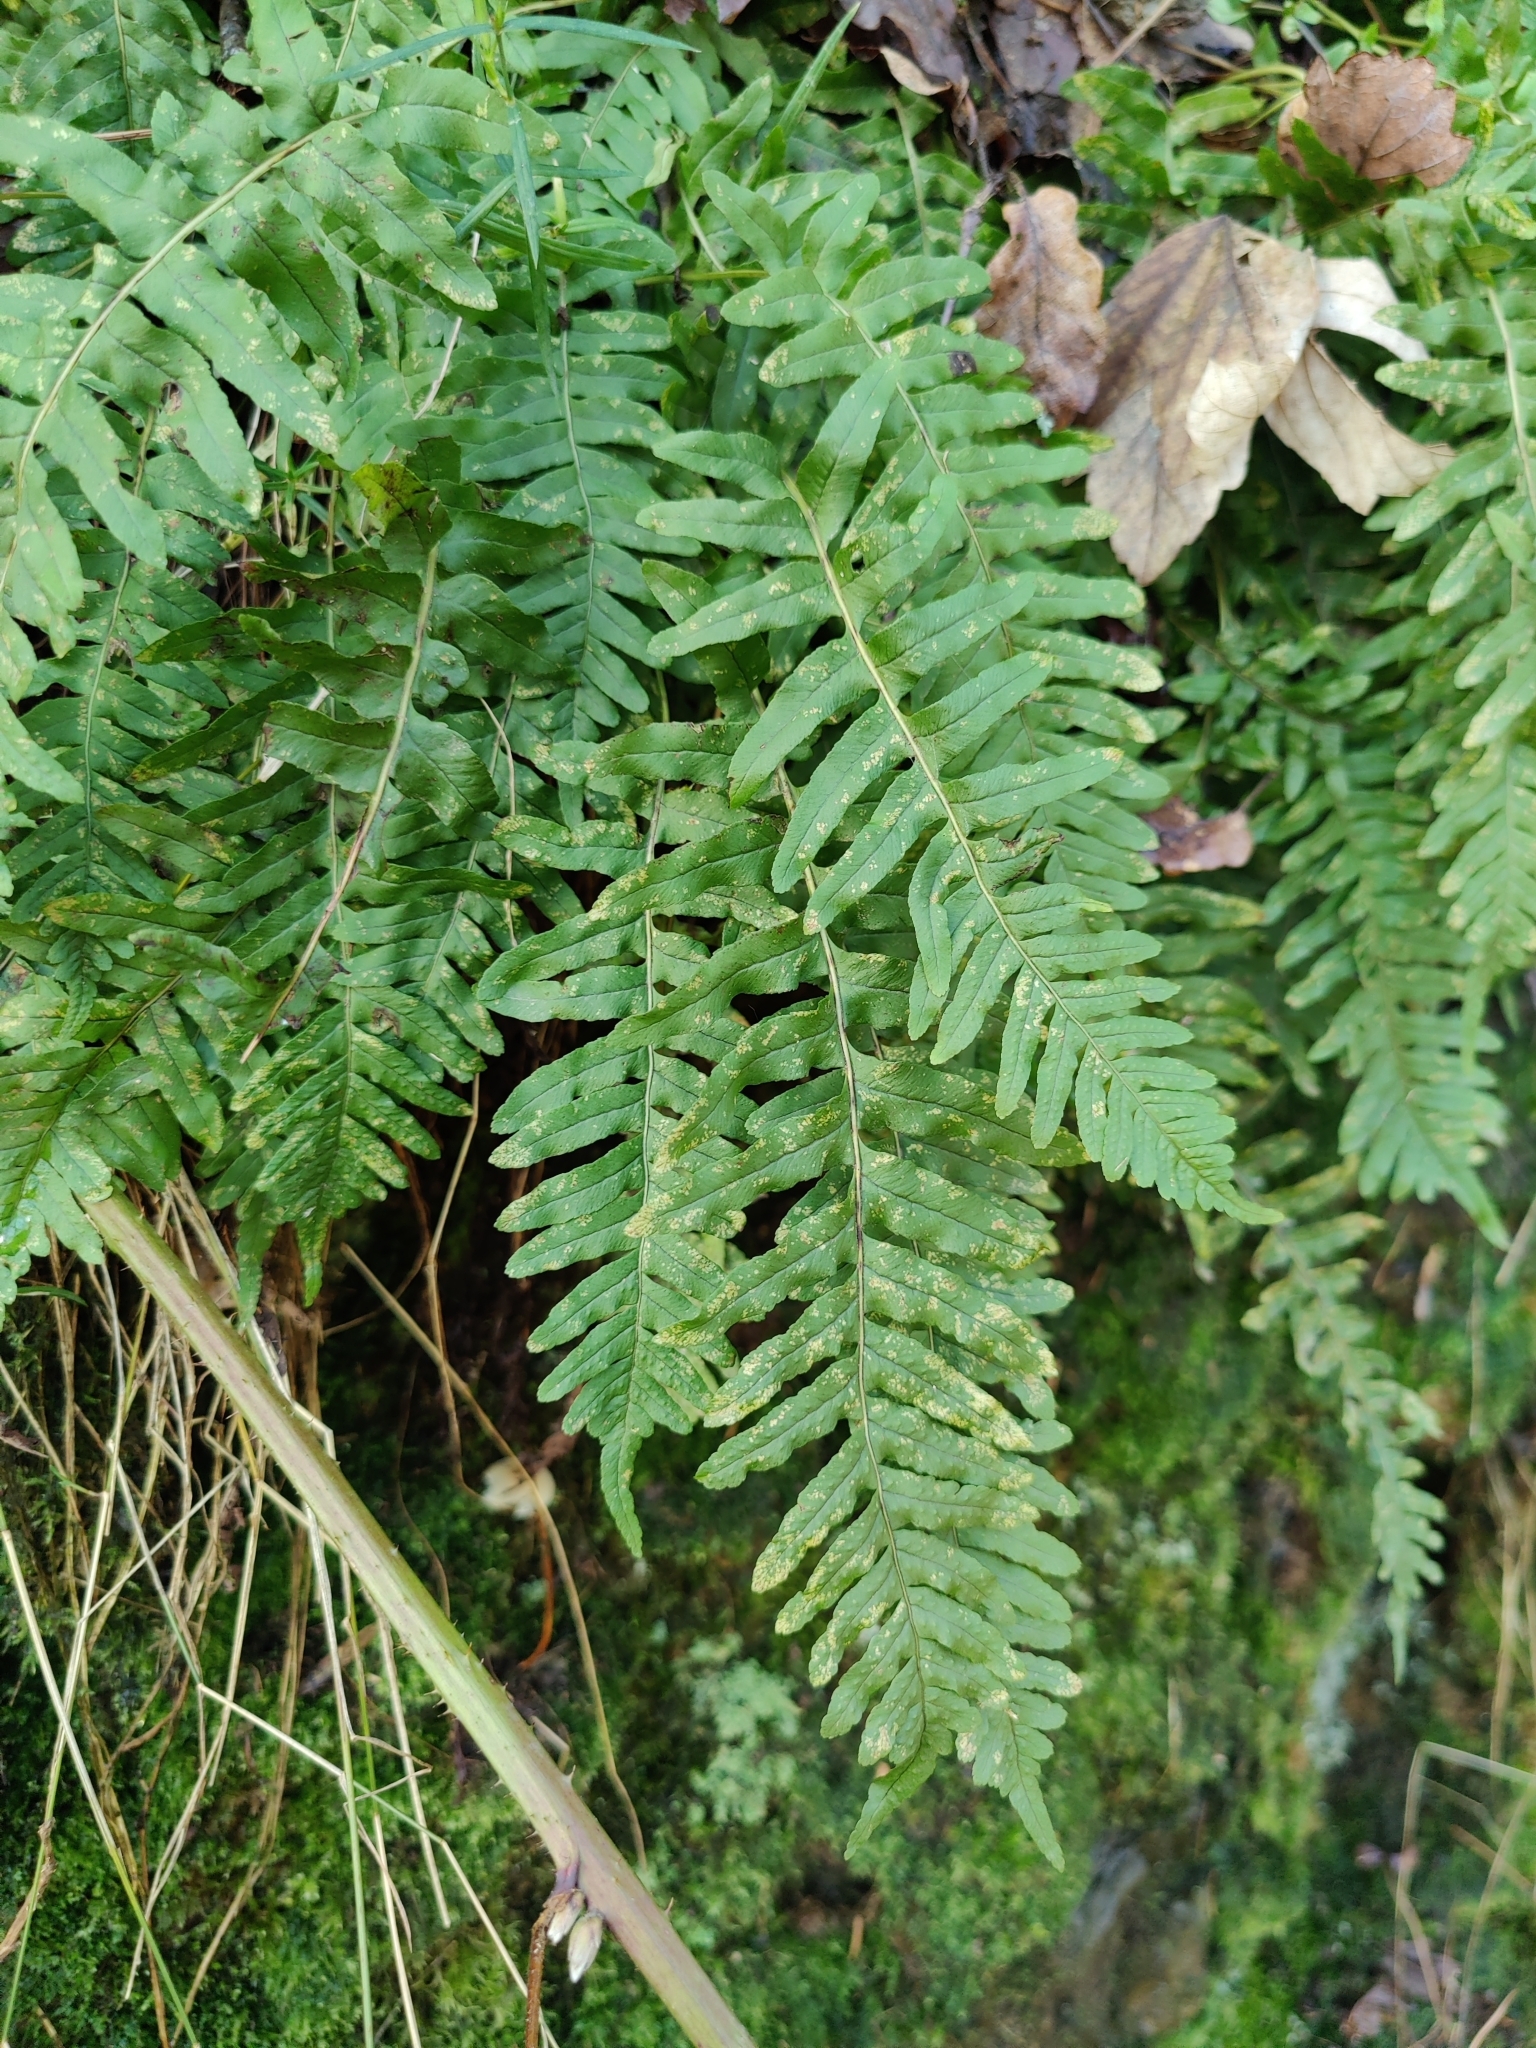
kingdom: Plantae
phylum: Tracheophyta
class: Polypodiopsida
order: Polypodiales
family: Polypodiaceae
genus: Polypodium
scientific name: Polypodium vulgare
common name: Common polypody
